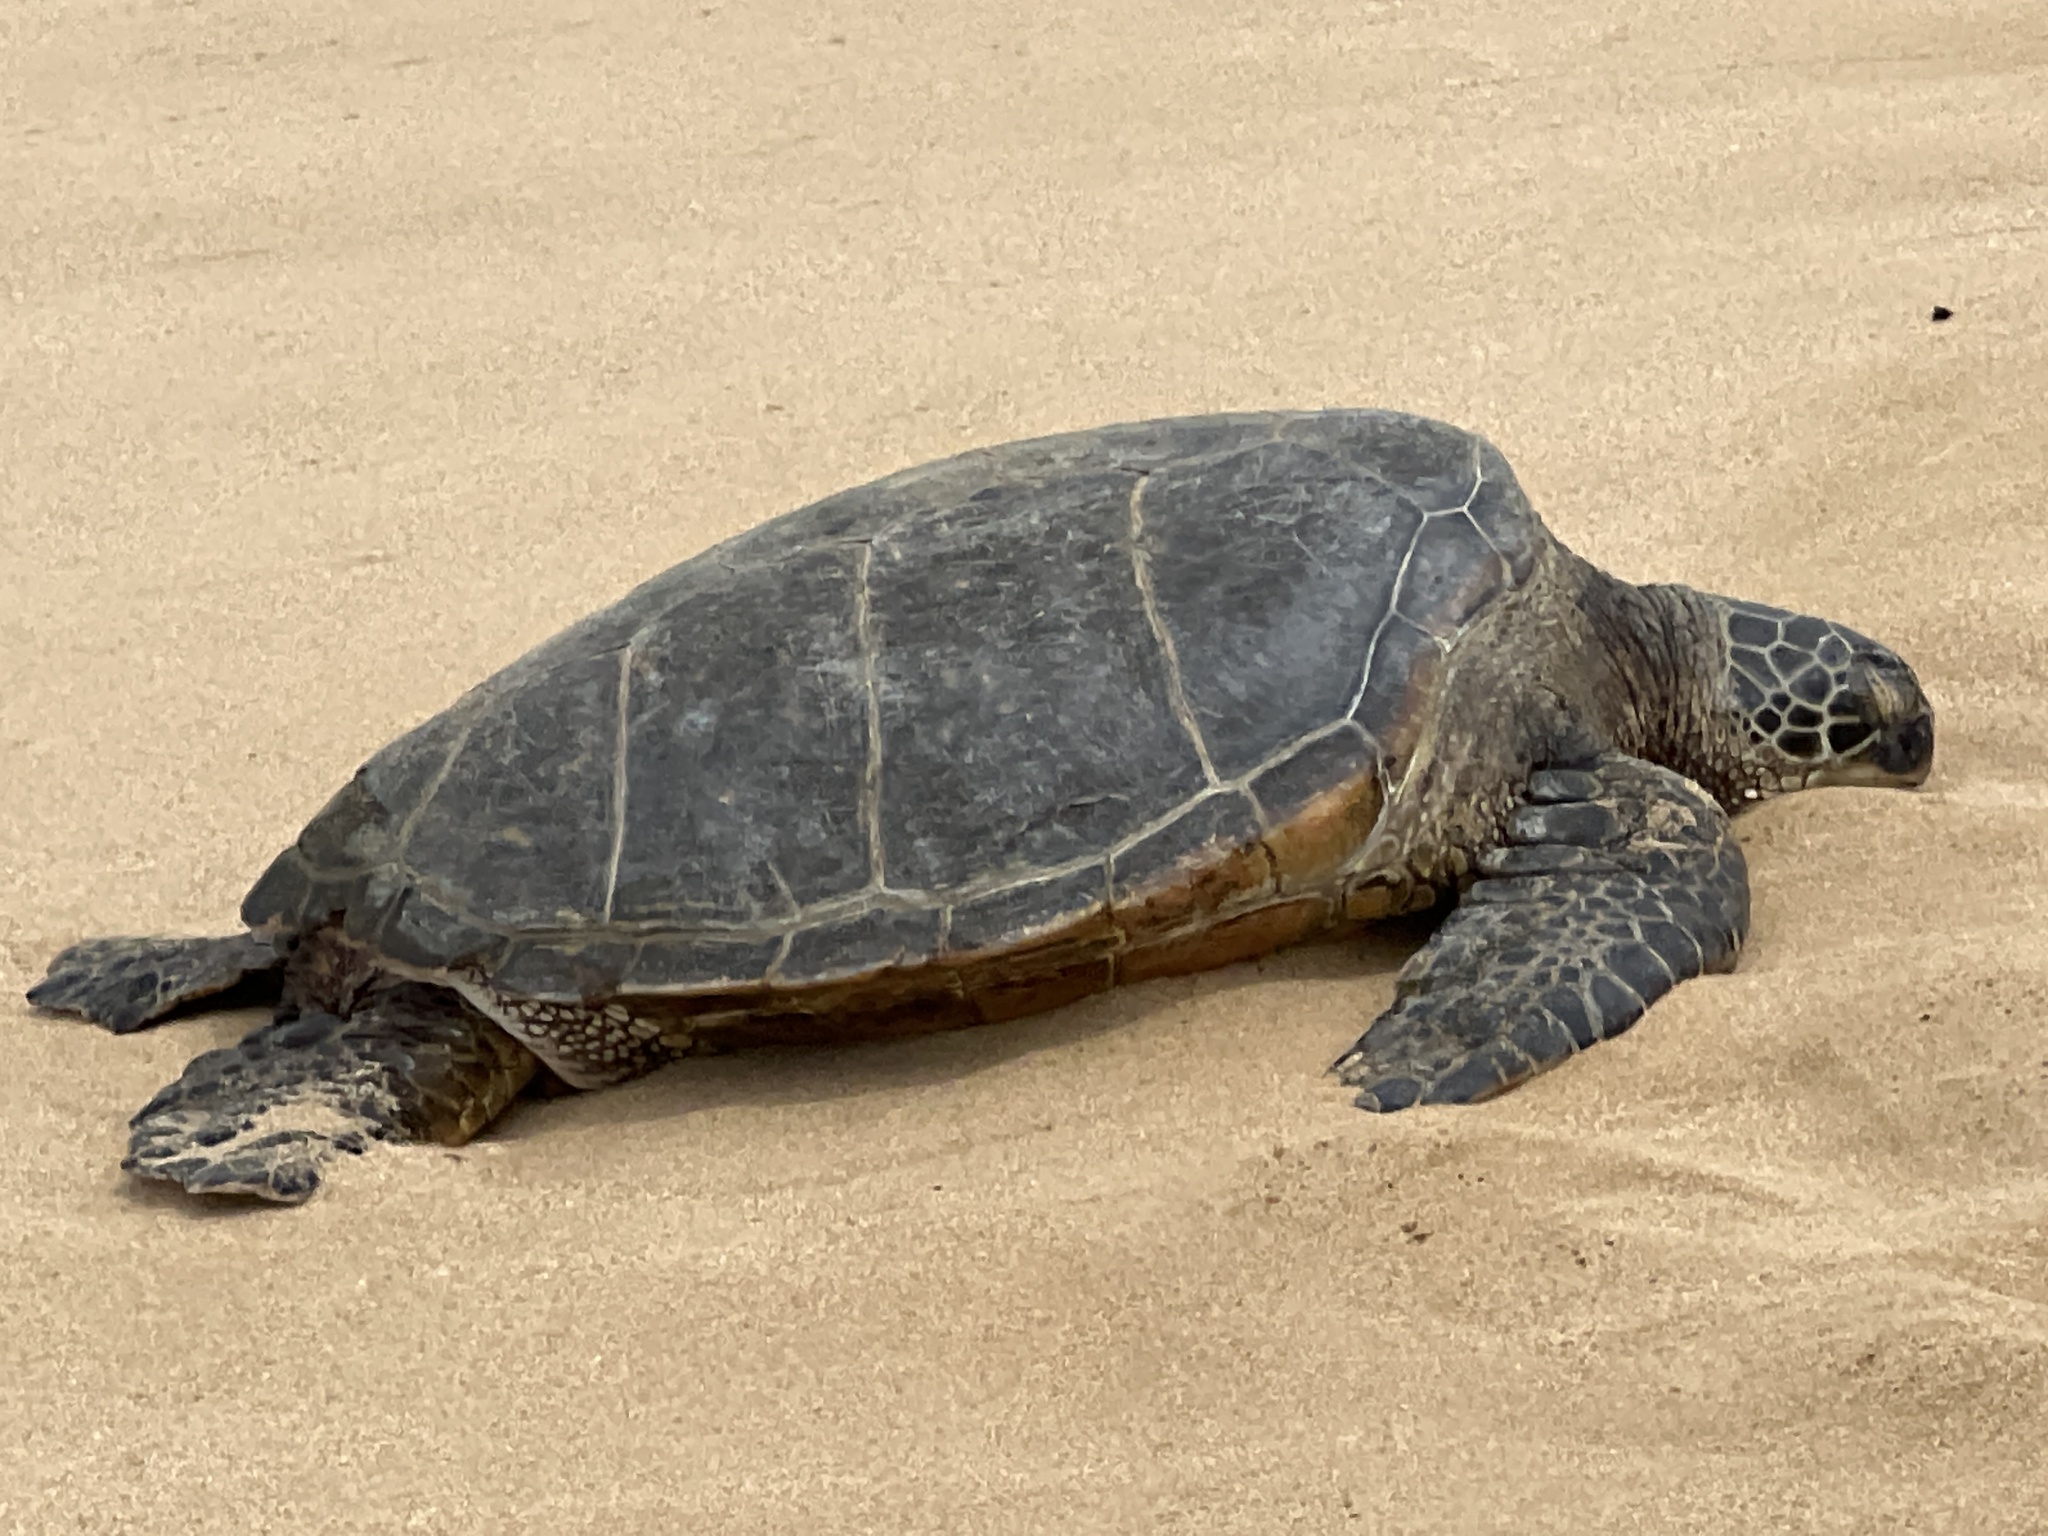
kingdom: Animalia
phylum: Chordata
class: Testudines
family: Cheloniidae
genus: Chelonia
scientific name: Chelonia mydas
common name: Green turtle
